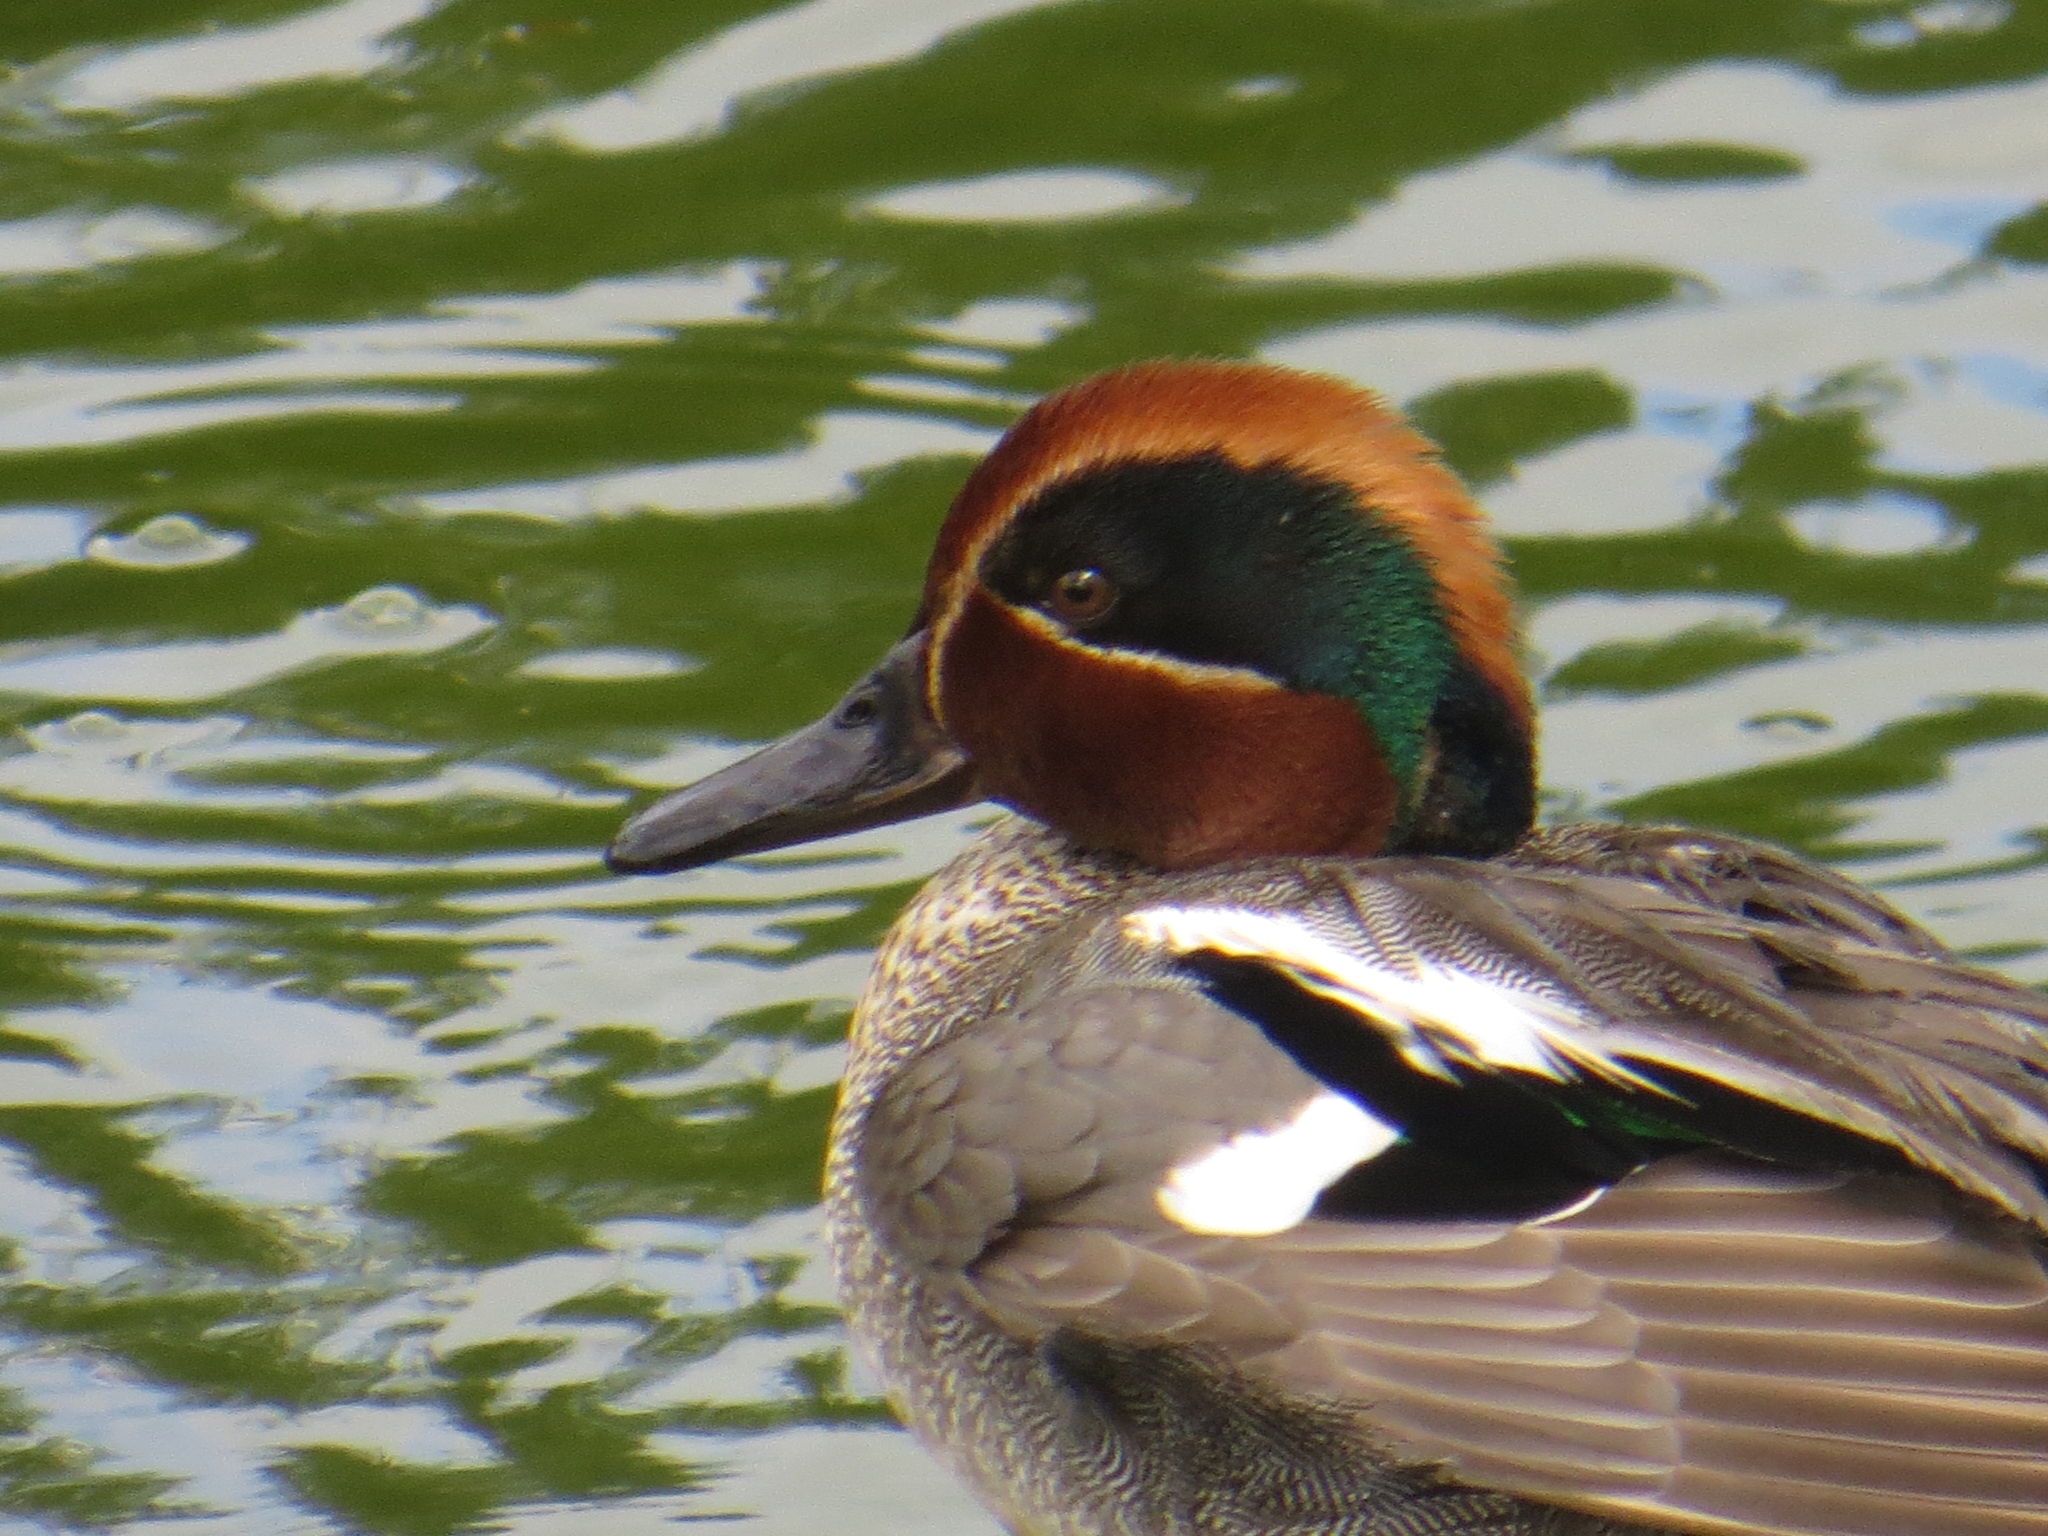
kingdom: Animalia
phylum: Chordata
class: Aves
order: Anseriformes
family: Anatidae
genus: Anas
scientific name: Anas crecca
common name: Eurasian teal
